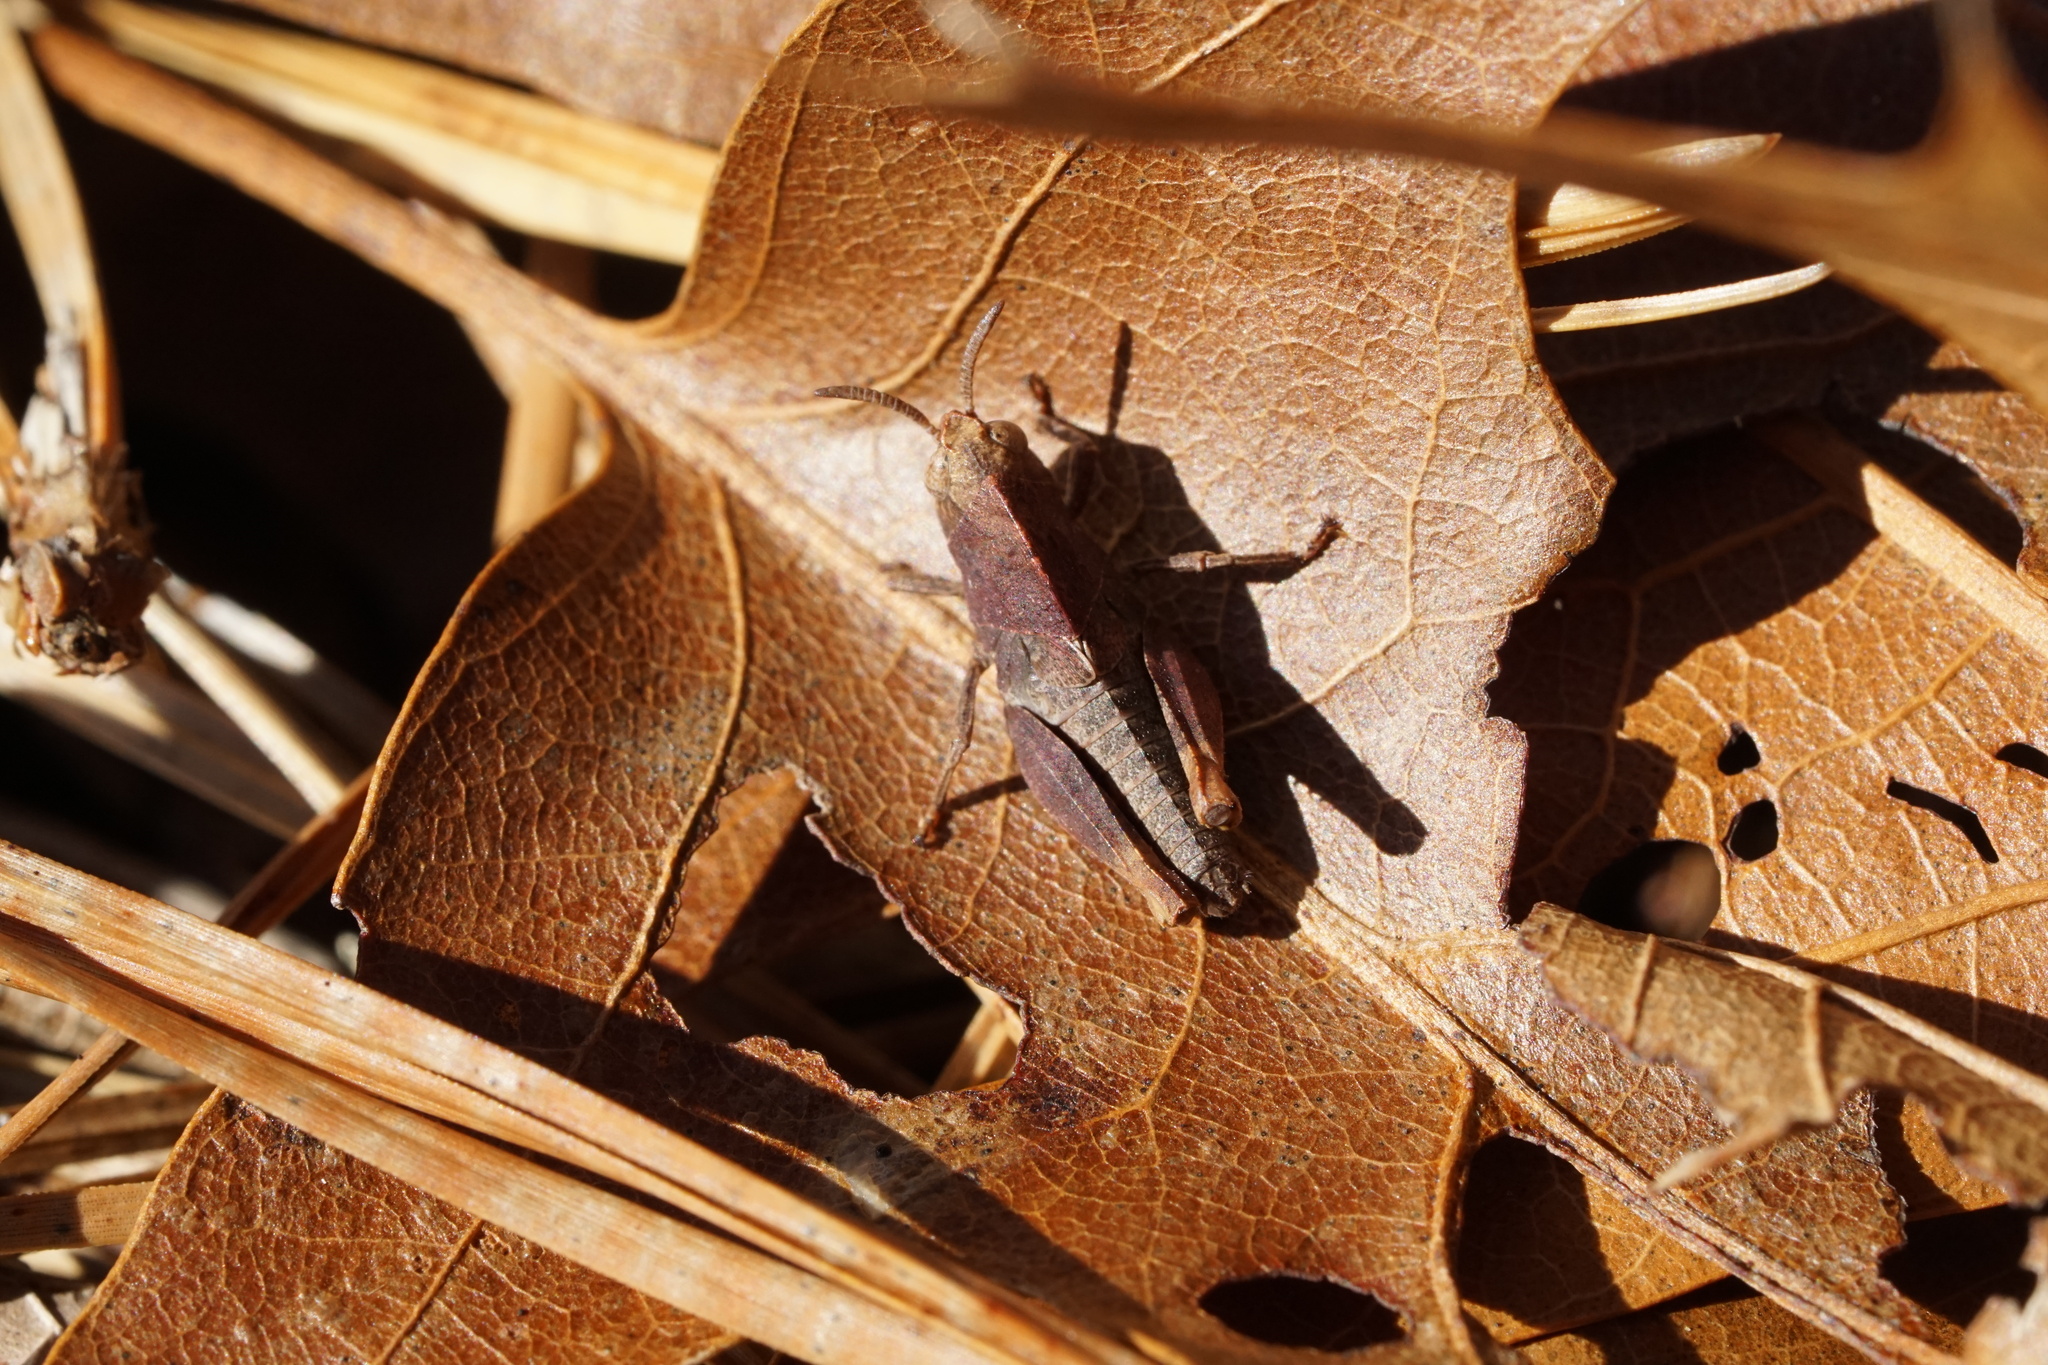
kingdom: Animalia
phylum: Arthropoda
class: Insecta
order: Orthoptera
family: Acrididae
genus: Arphia
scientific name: Arphia sulphurea
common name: Spring yellow-winged locust
